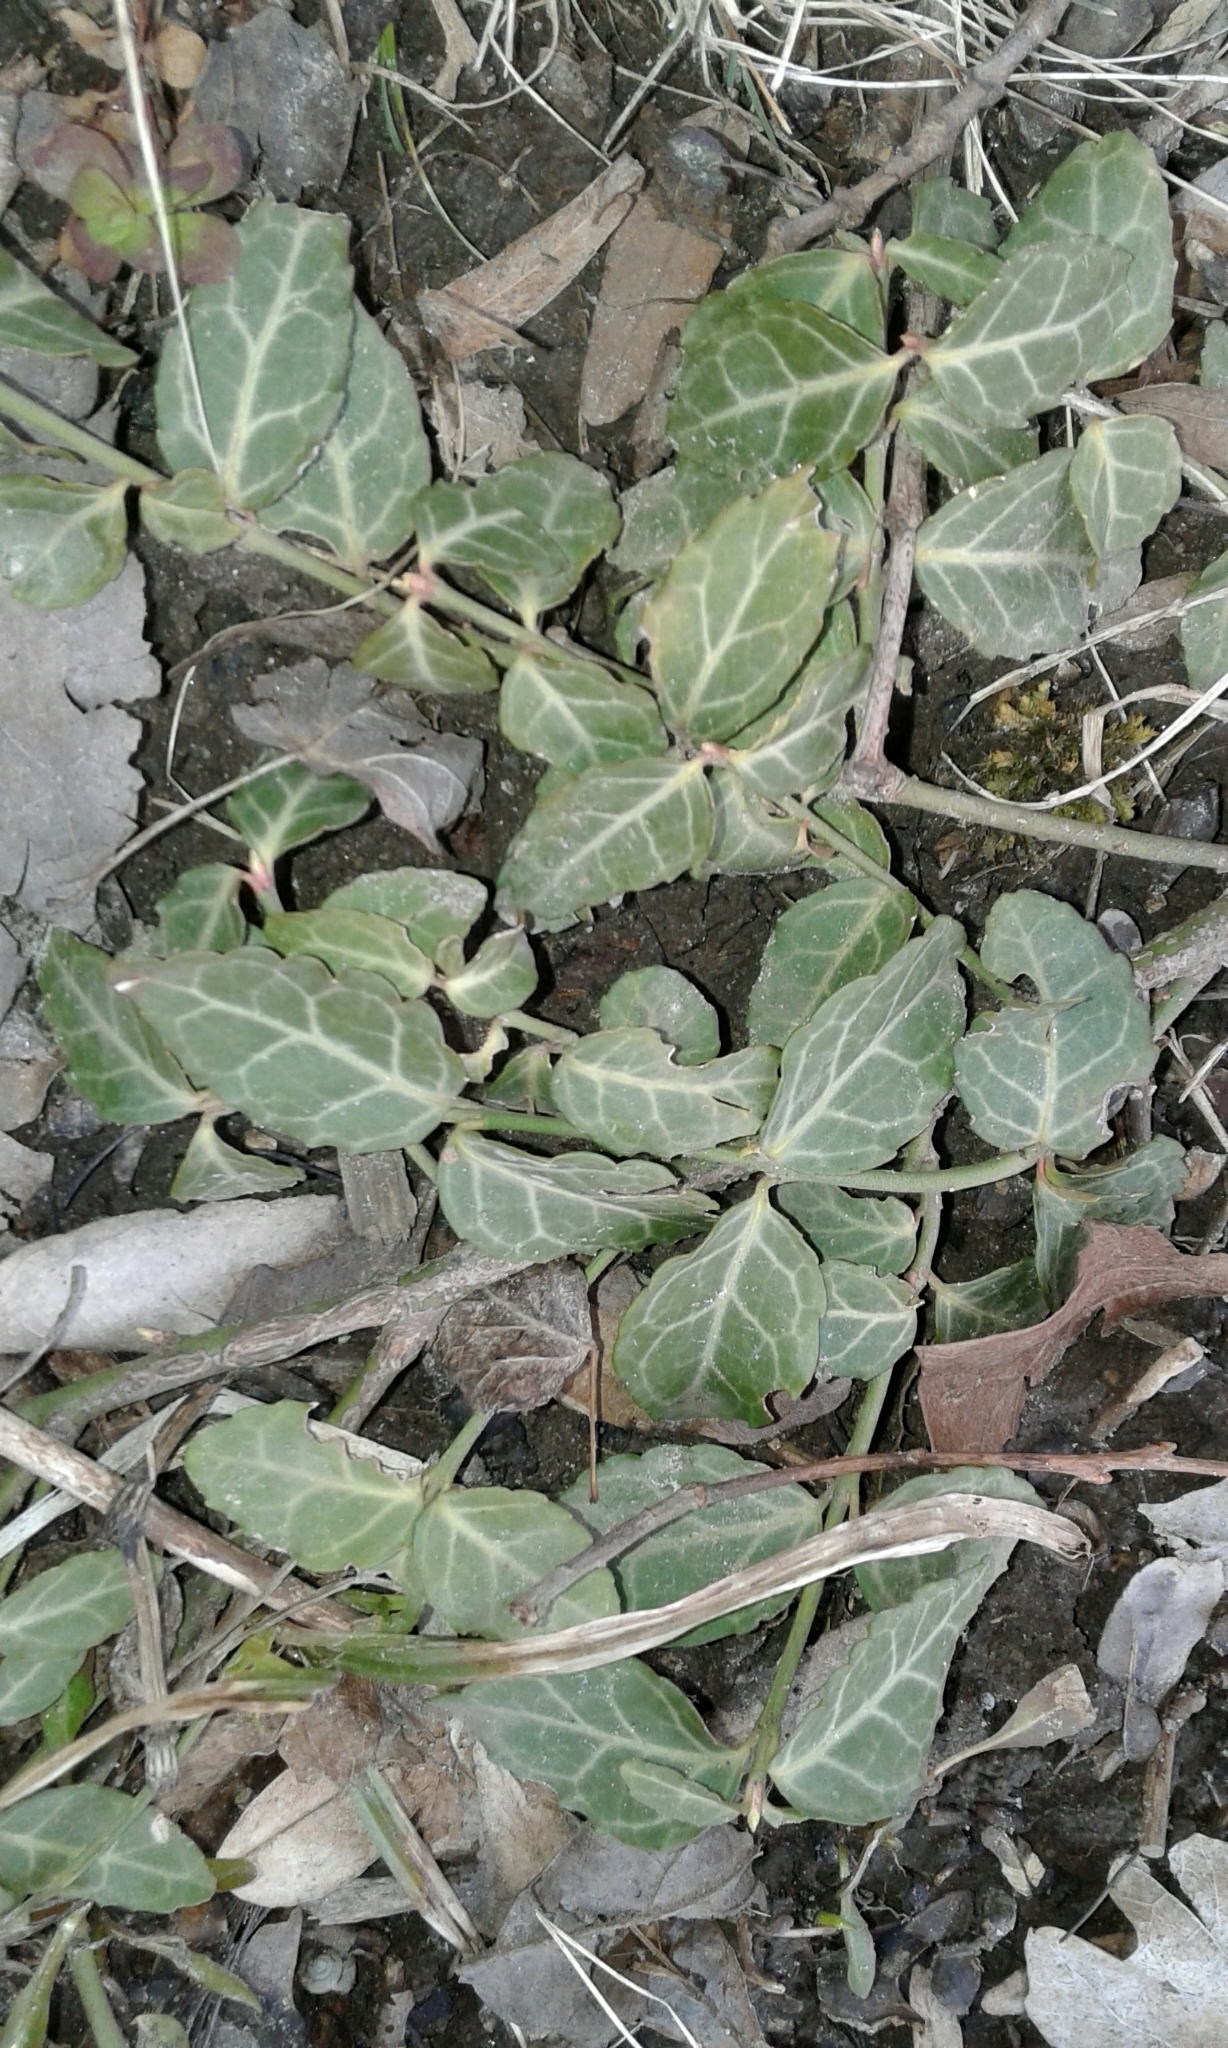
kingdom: Plantae
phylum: Tracheophyta
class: Magnoliopsida
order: Celastrales
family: Celastraceae
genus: Euonymus
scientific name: Euonymus fortunei
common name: Climbing euonymus
